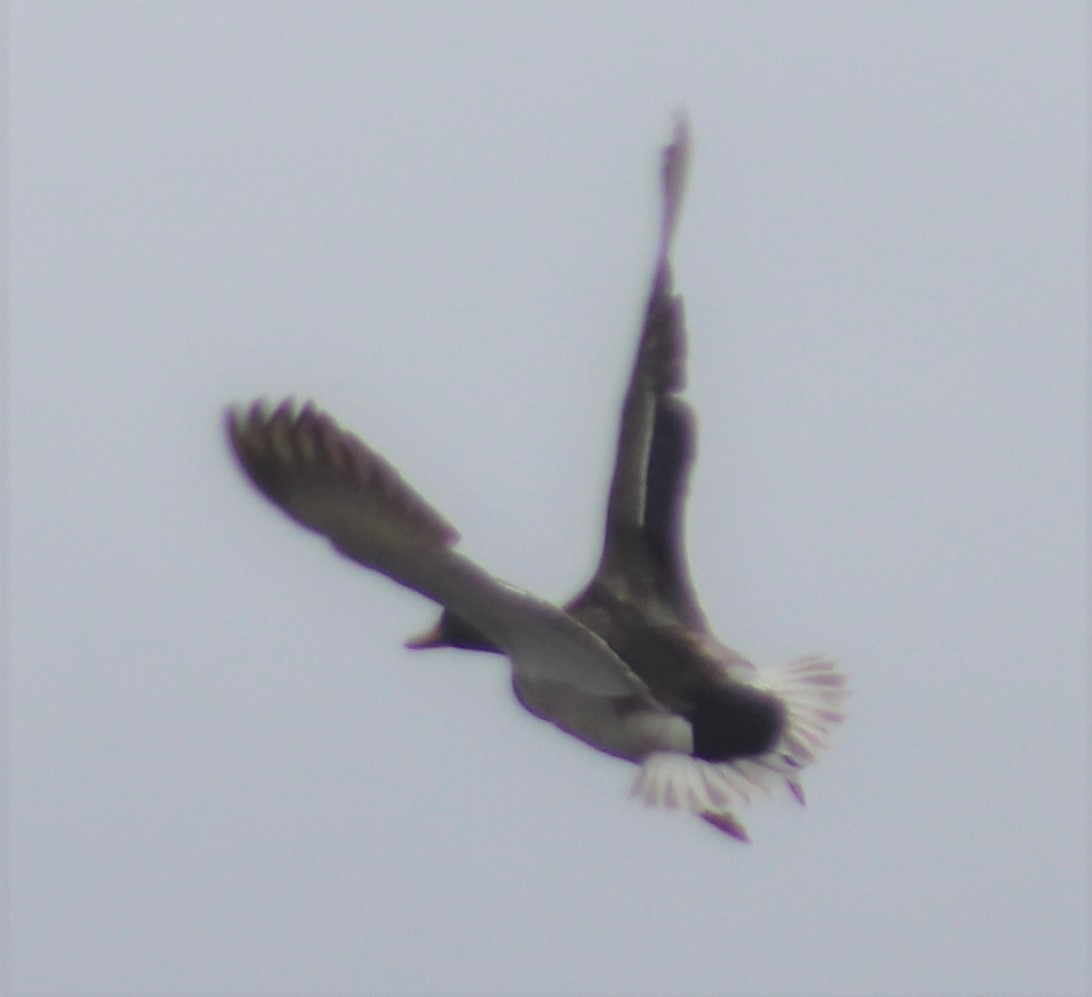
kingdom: Animalia
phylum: Chordata
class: Aves
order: Anseriformes
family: Anatidae
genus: Anas
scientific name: Anas platyrhynchos
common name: Mallard
